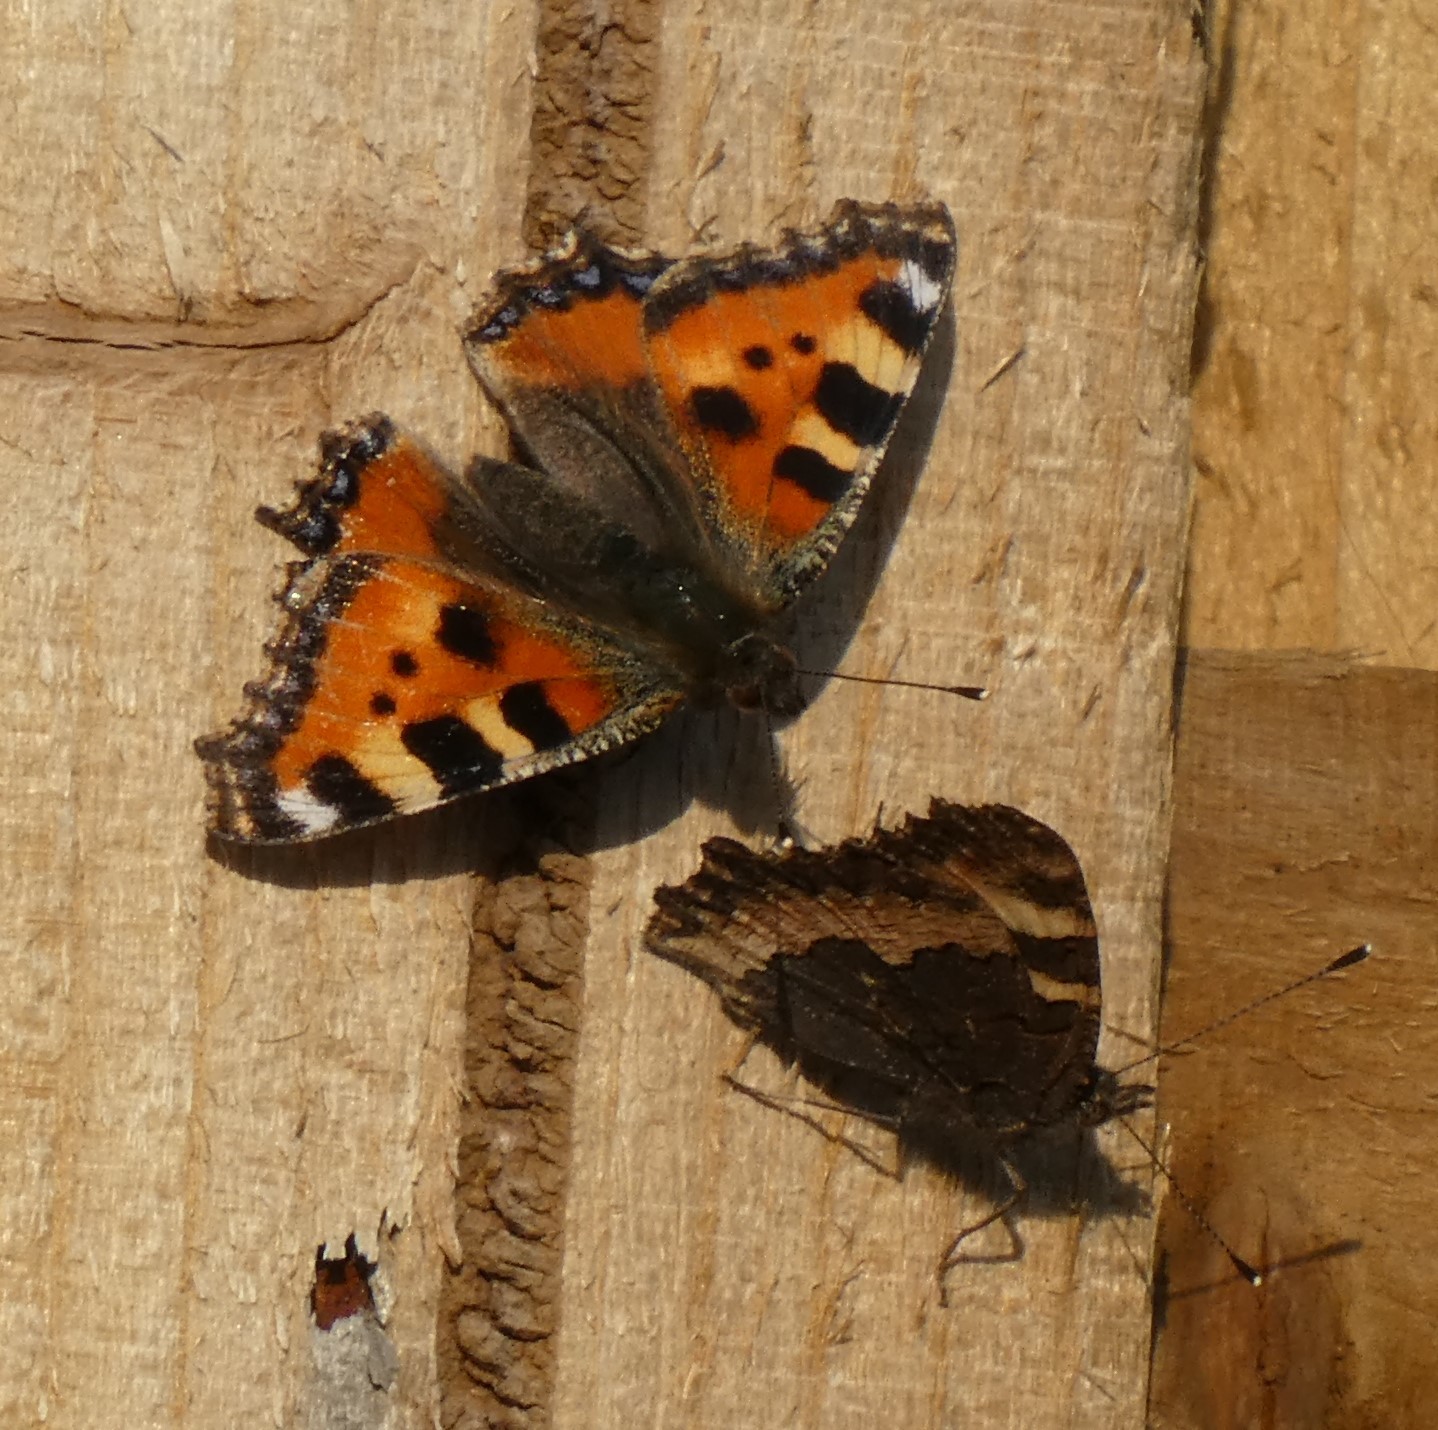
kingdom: Animalia
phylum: Arthropoda
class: Insecta
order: Lepidoptera
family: Nymphalidae
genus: Aglais
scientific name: Aglais urticae
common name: Small tortoiseshell
